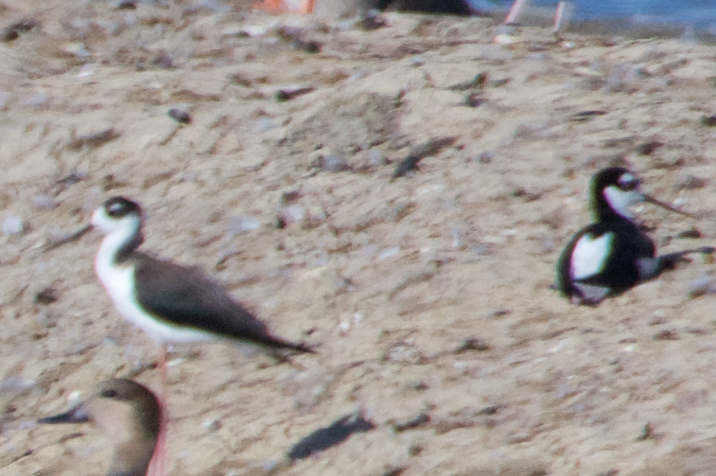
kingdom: Animalia
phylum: Chordata
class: Aves
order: Charadriiformes
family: Recurvirostridae
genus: Himantopus
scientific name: Himantopus mexicanus
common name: Black-necked stilt
